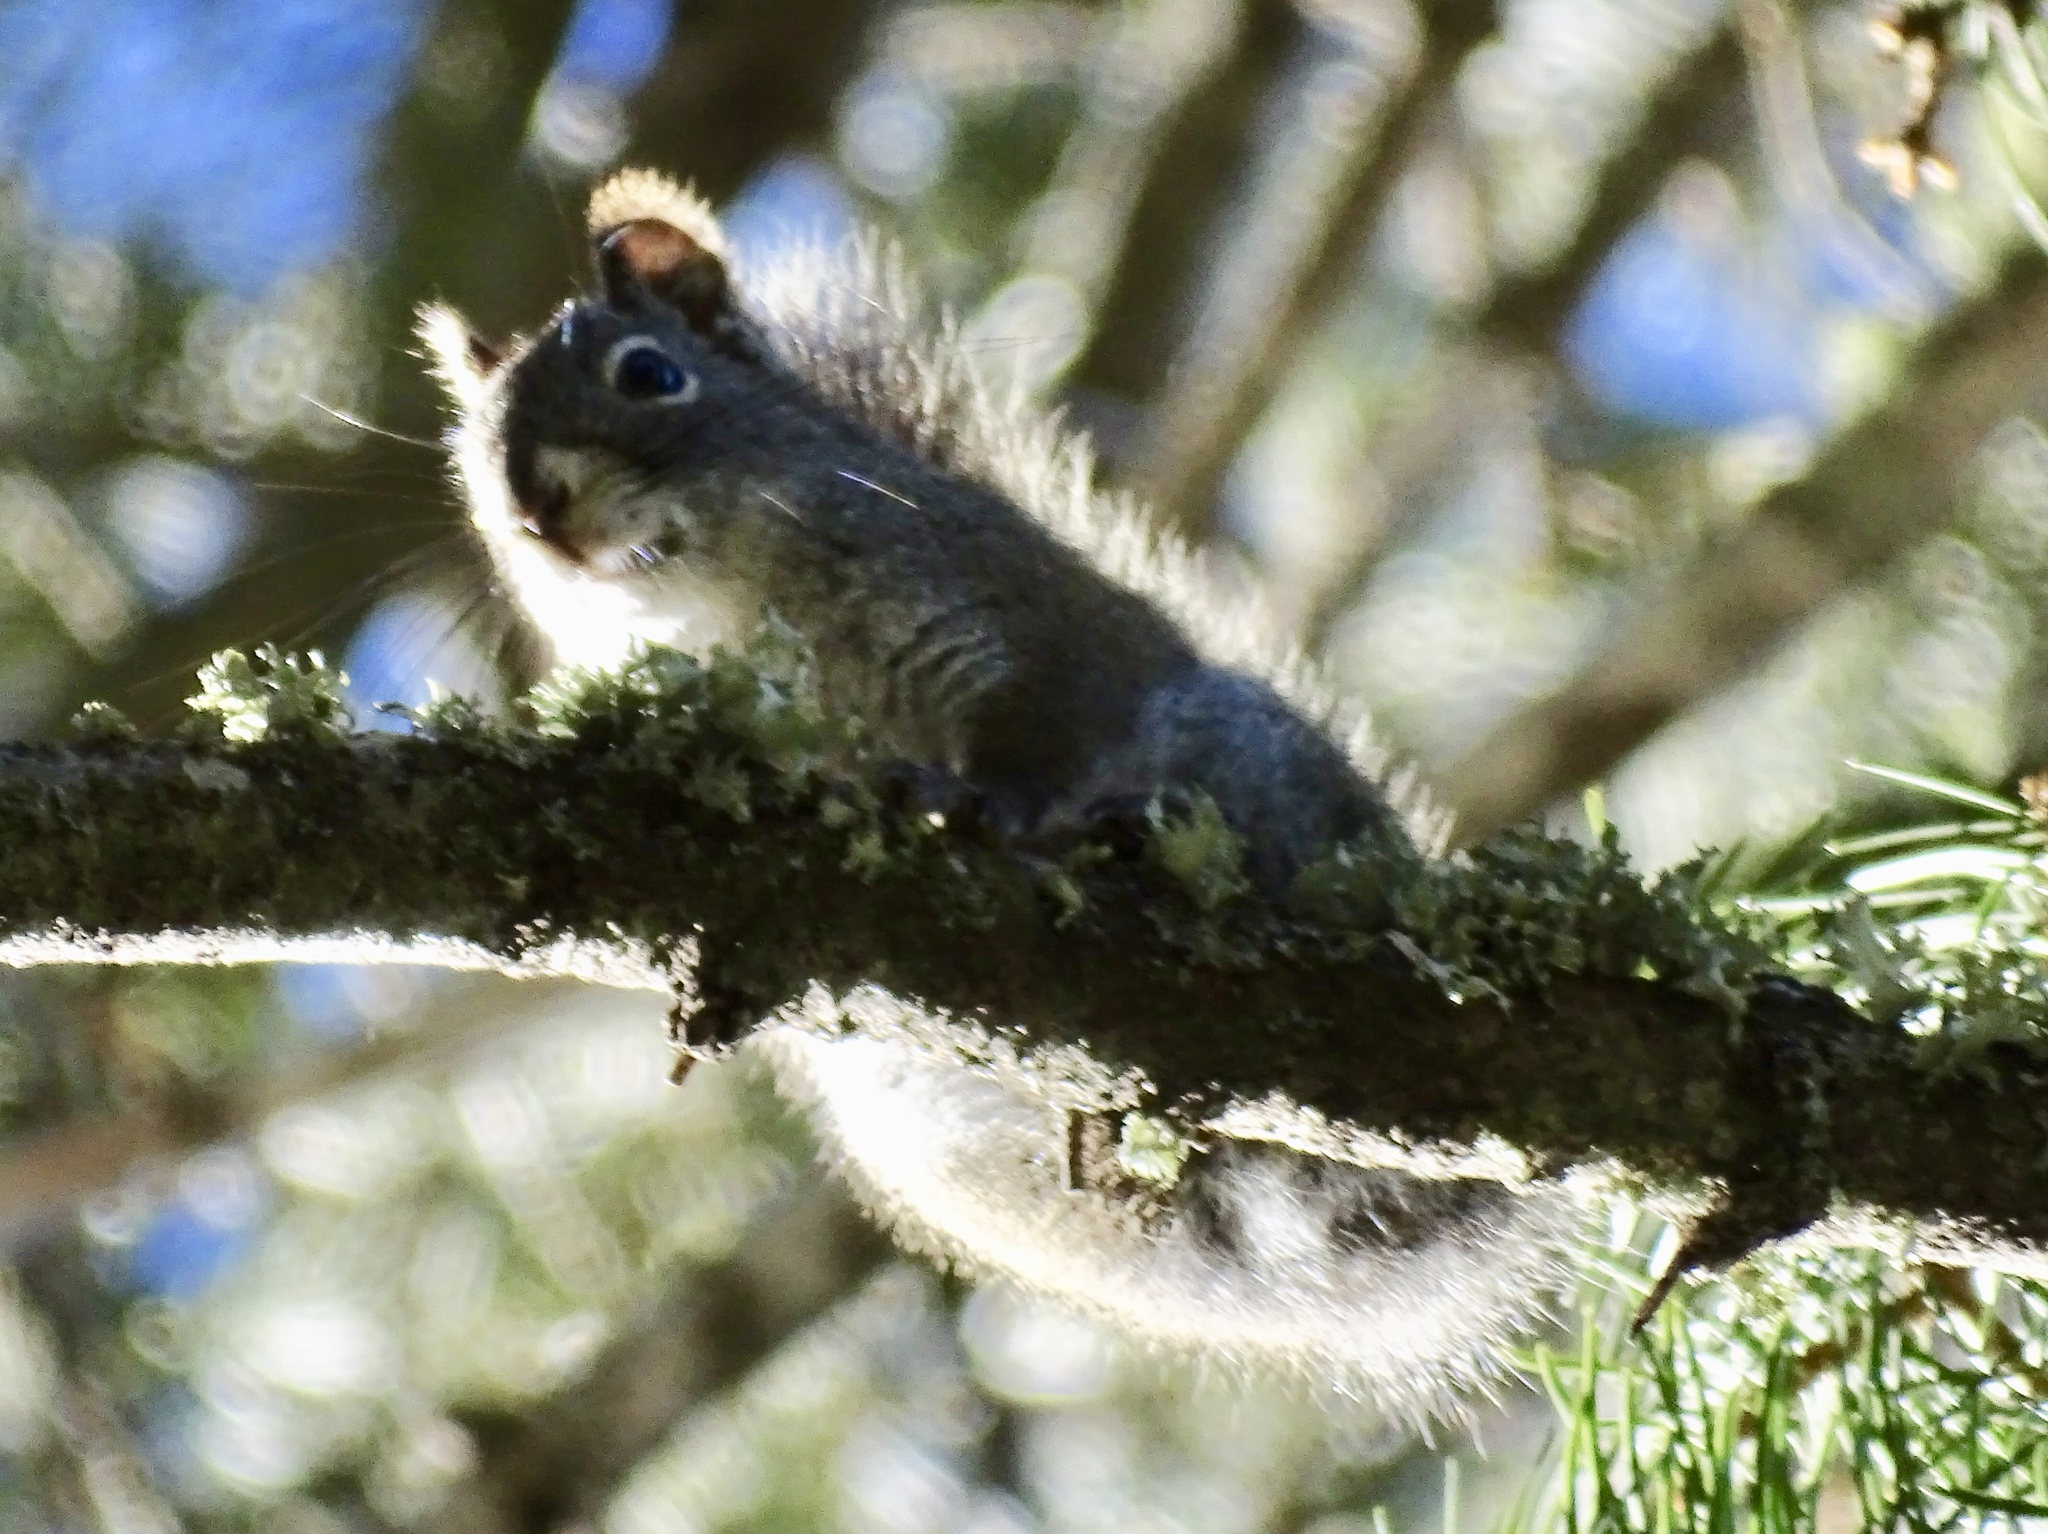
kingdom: Animalia
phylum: Chordata
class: Mammalia
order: Rodentia
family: Sciuridae
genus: Tamiasciurus
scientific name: Tamiasciurus hudsonicus
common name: Red squirrel
